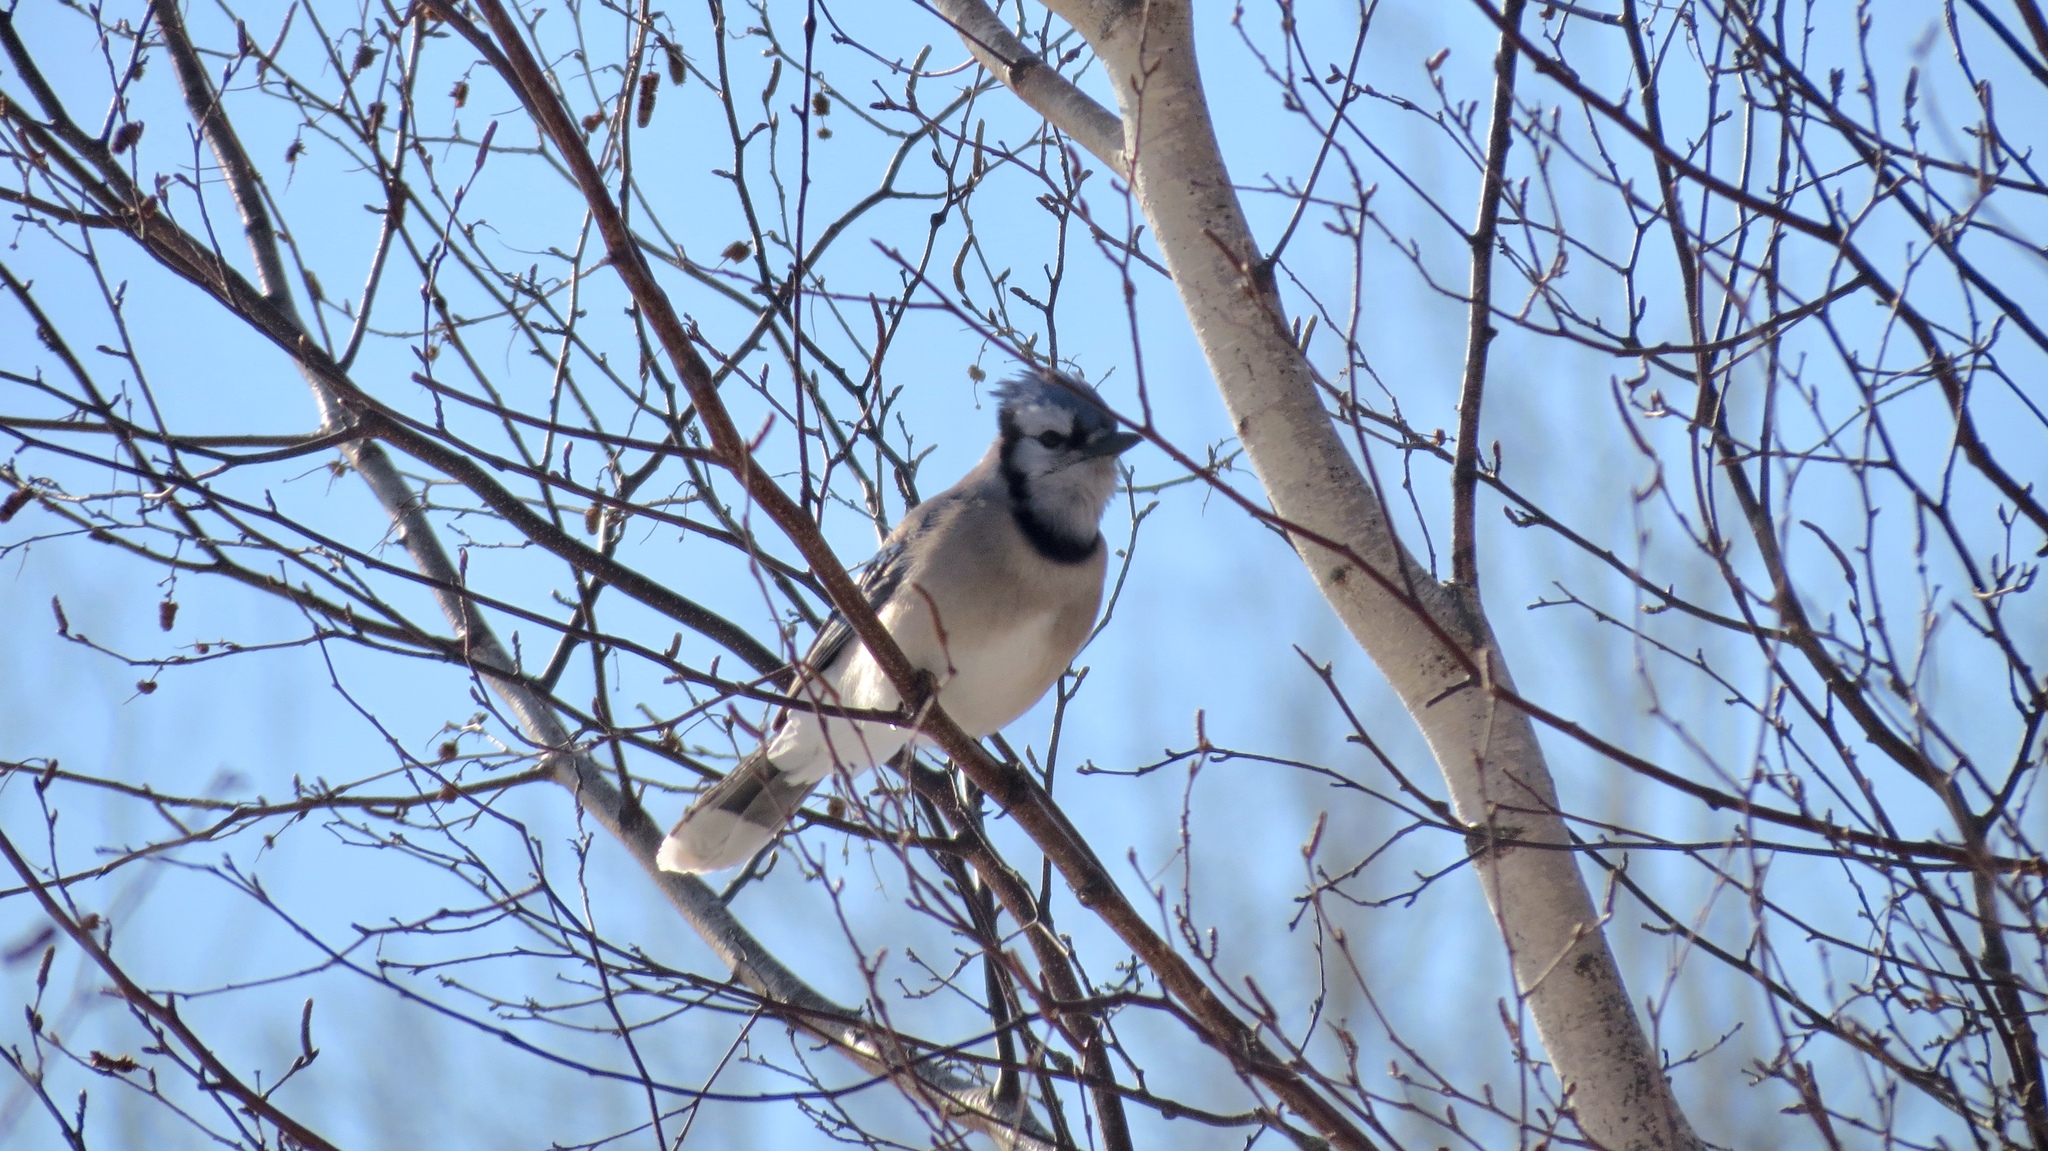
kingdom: Animalia
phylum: Chordata
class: Aves
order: Passeriformes
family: Corvidae
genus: Cyanocitta
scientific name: Cyanocitta cristata
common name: Blue jay
